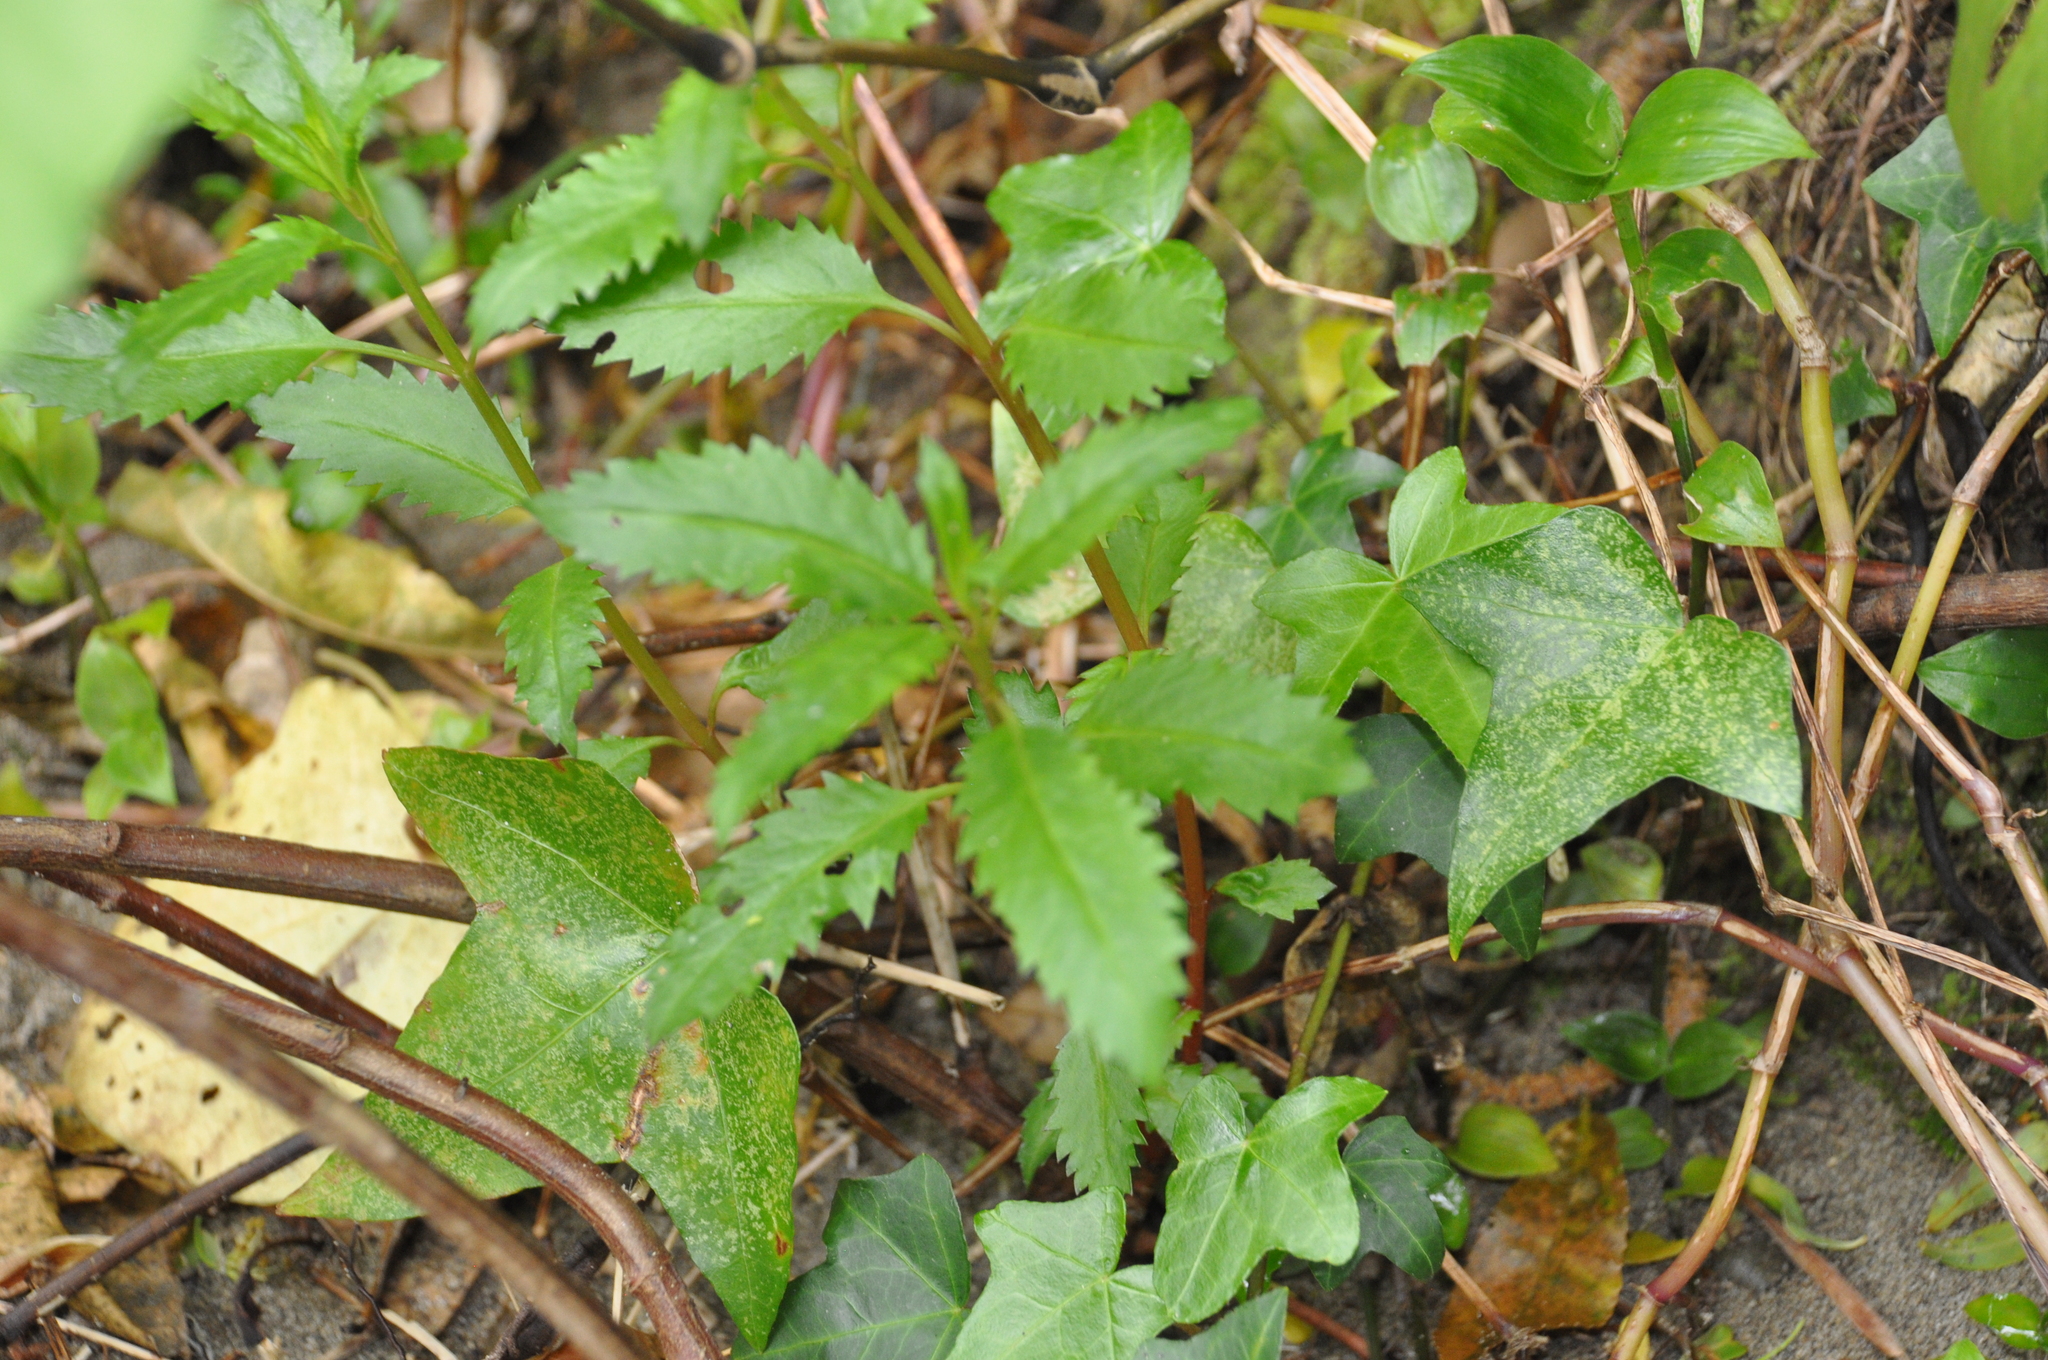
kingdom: Plantae
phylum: Tracheophyta
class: Magnoliopsida
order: Saxifragales
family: Haloragaceae
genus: Haloragis
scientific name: Haloragis erecta
